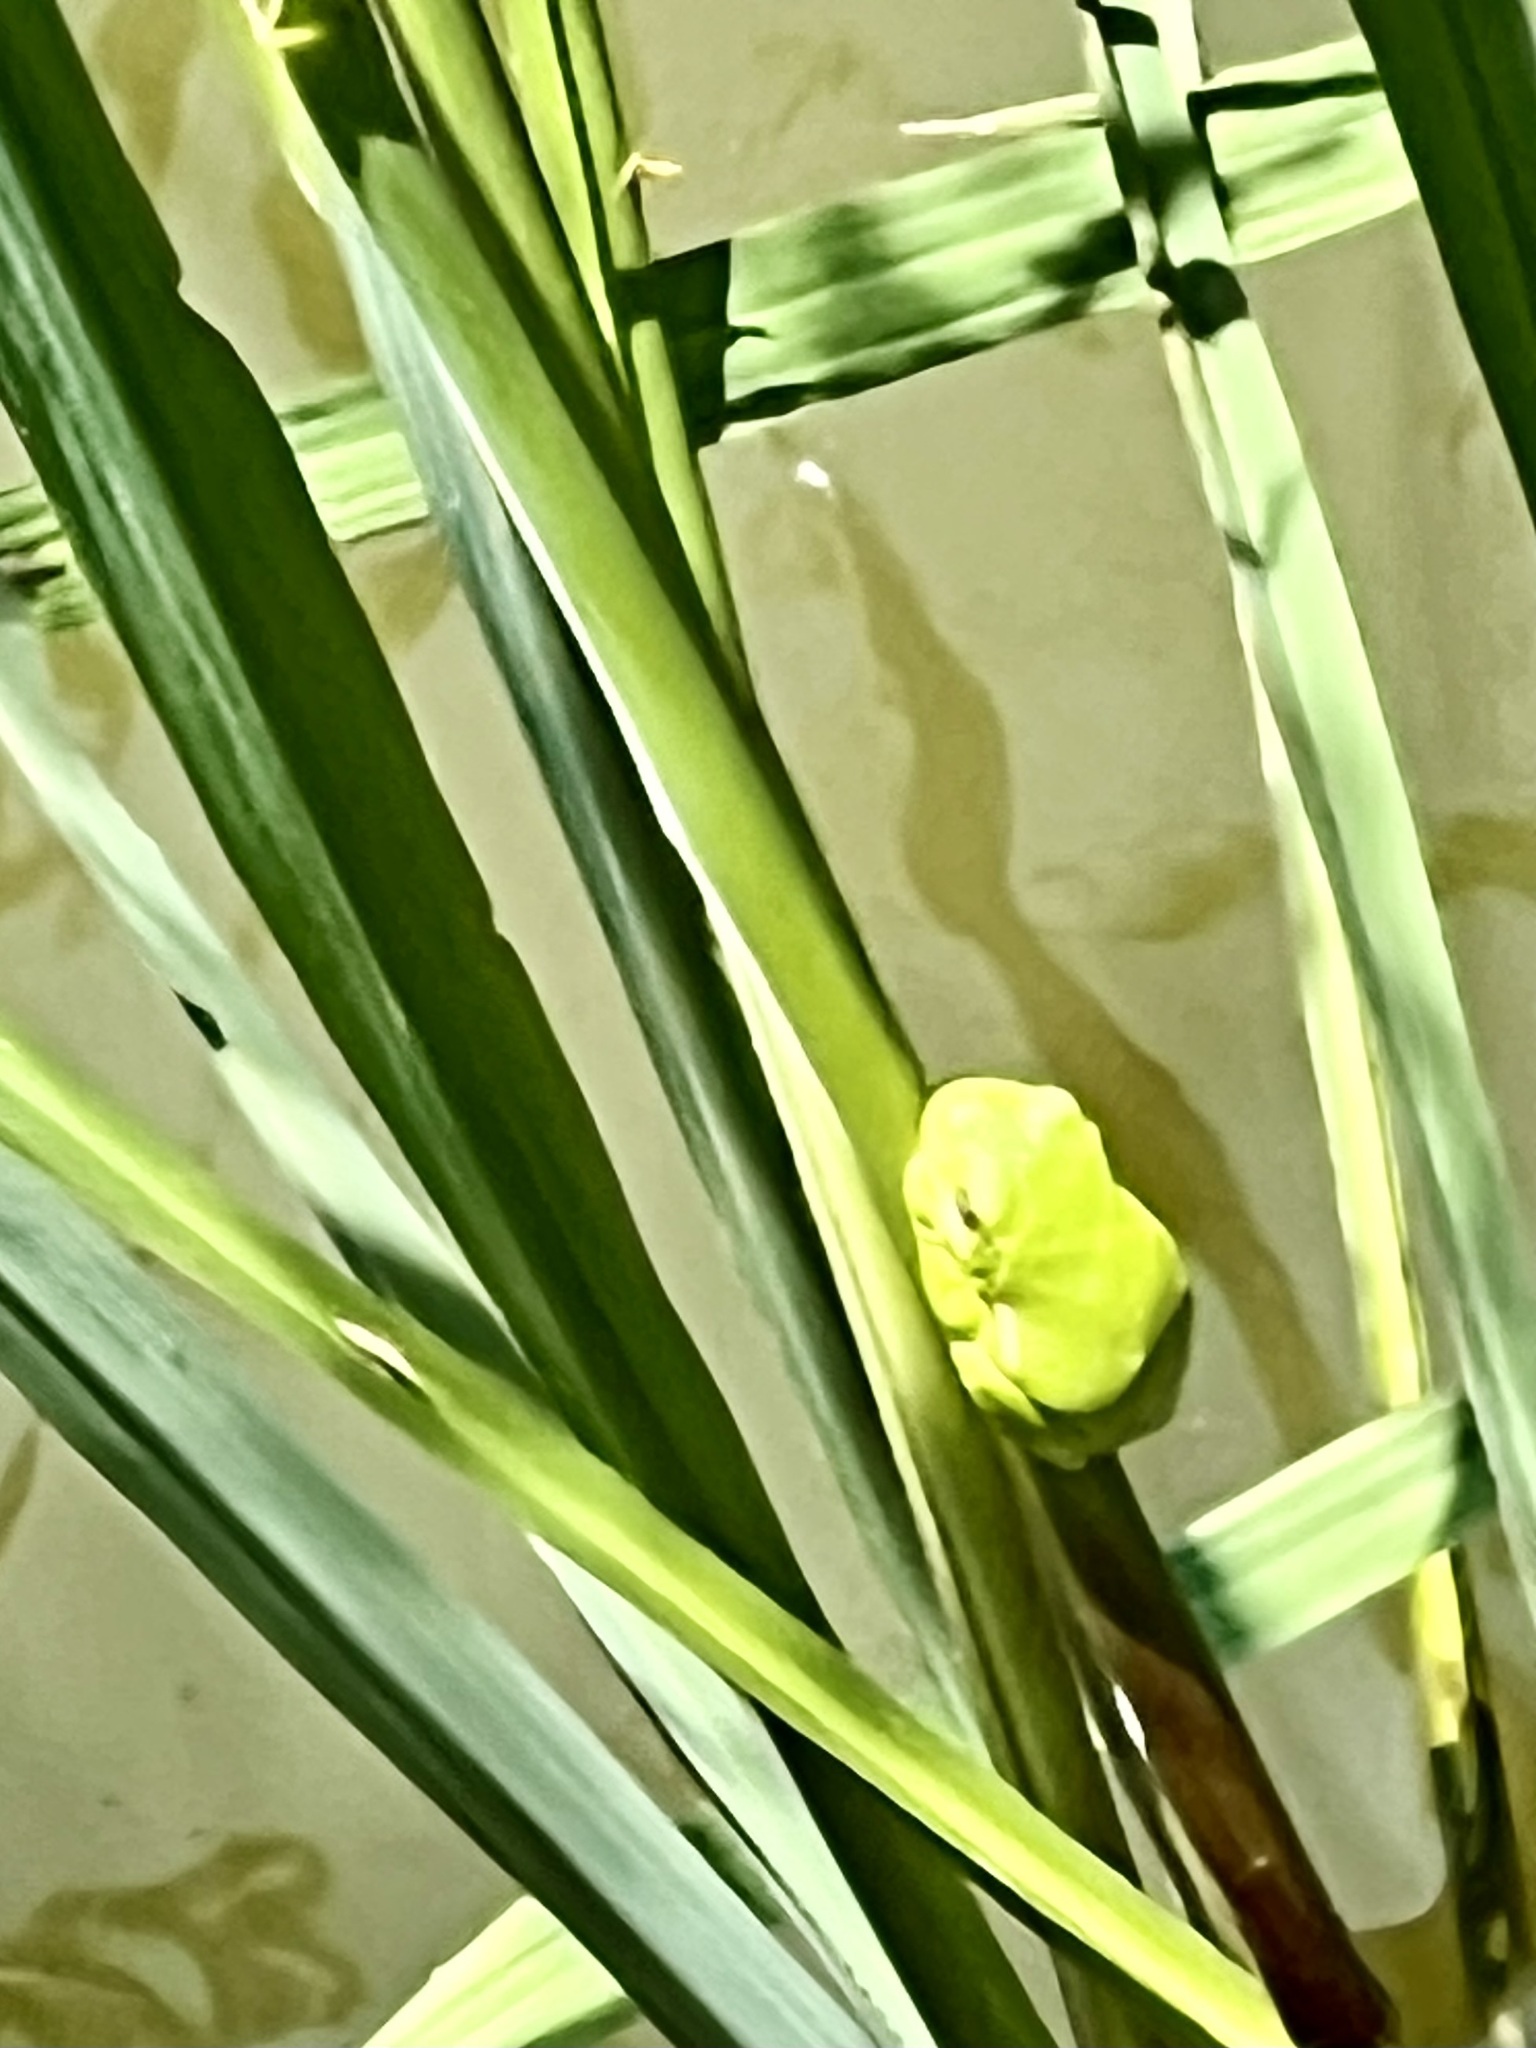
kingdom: Animalia
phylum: Chordata
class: Amphibia
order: Anura
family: Hylidae
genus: Dryophytes
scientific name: Dryophytes cinereus
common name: Green treefrog
